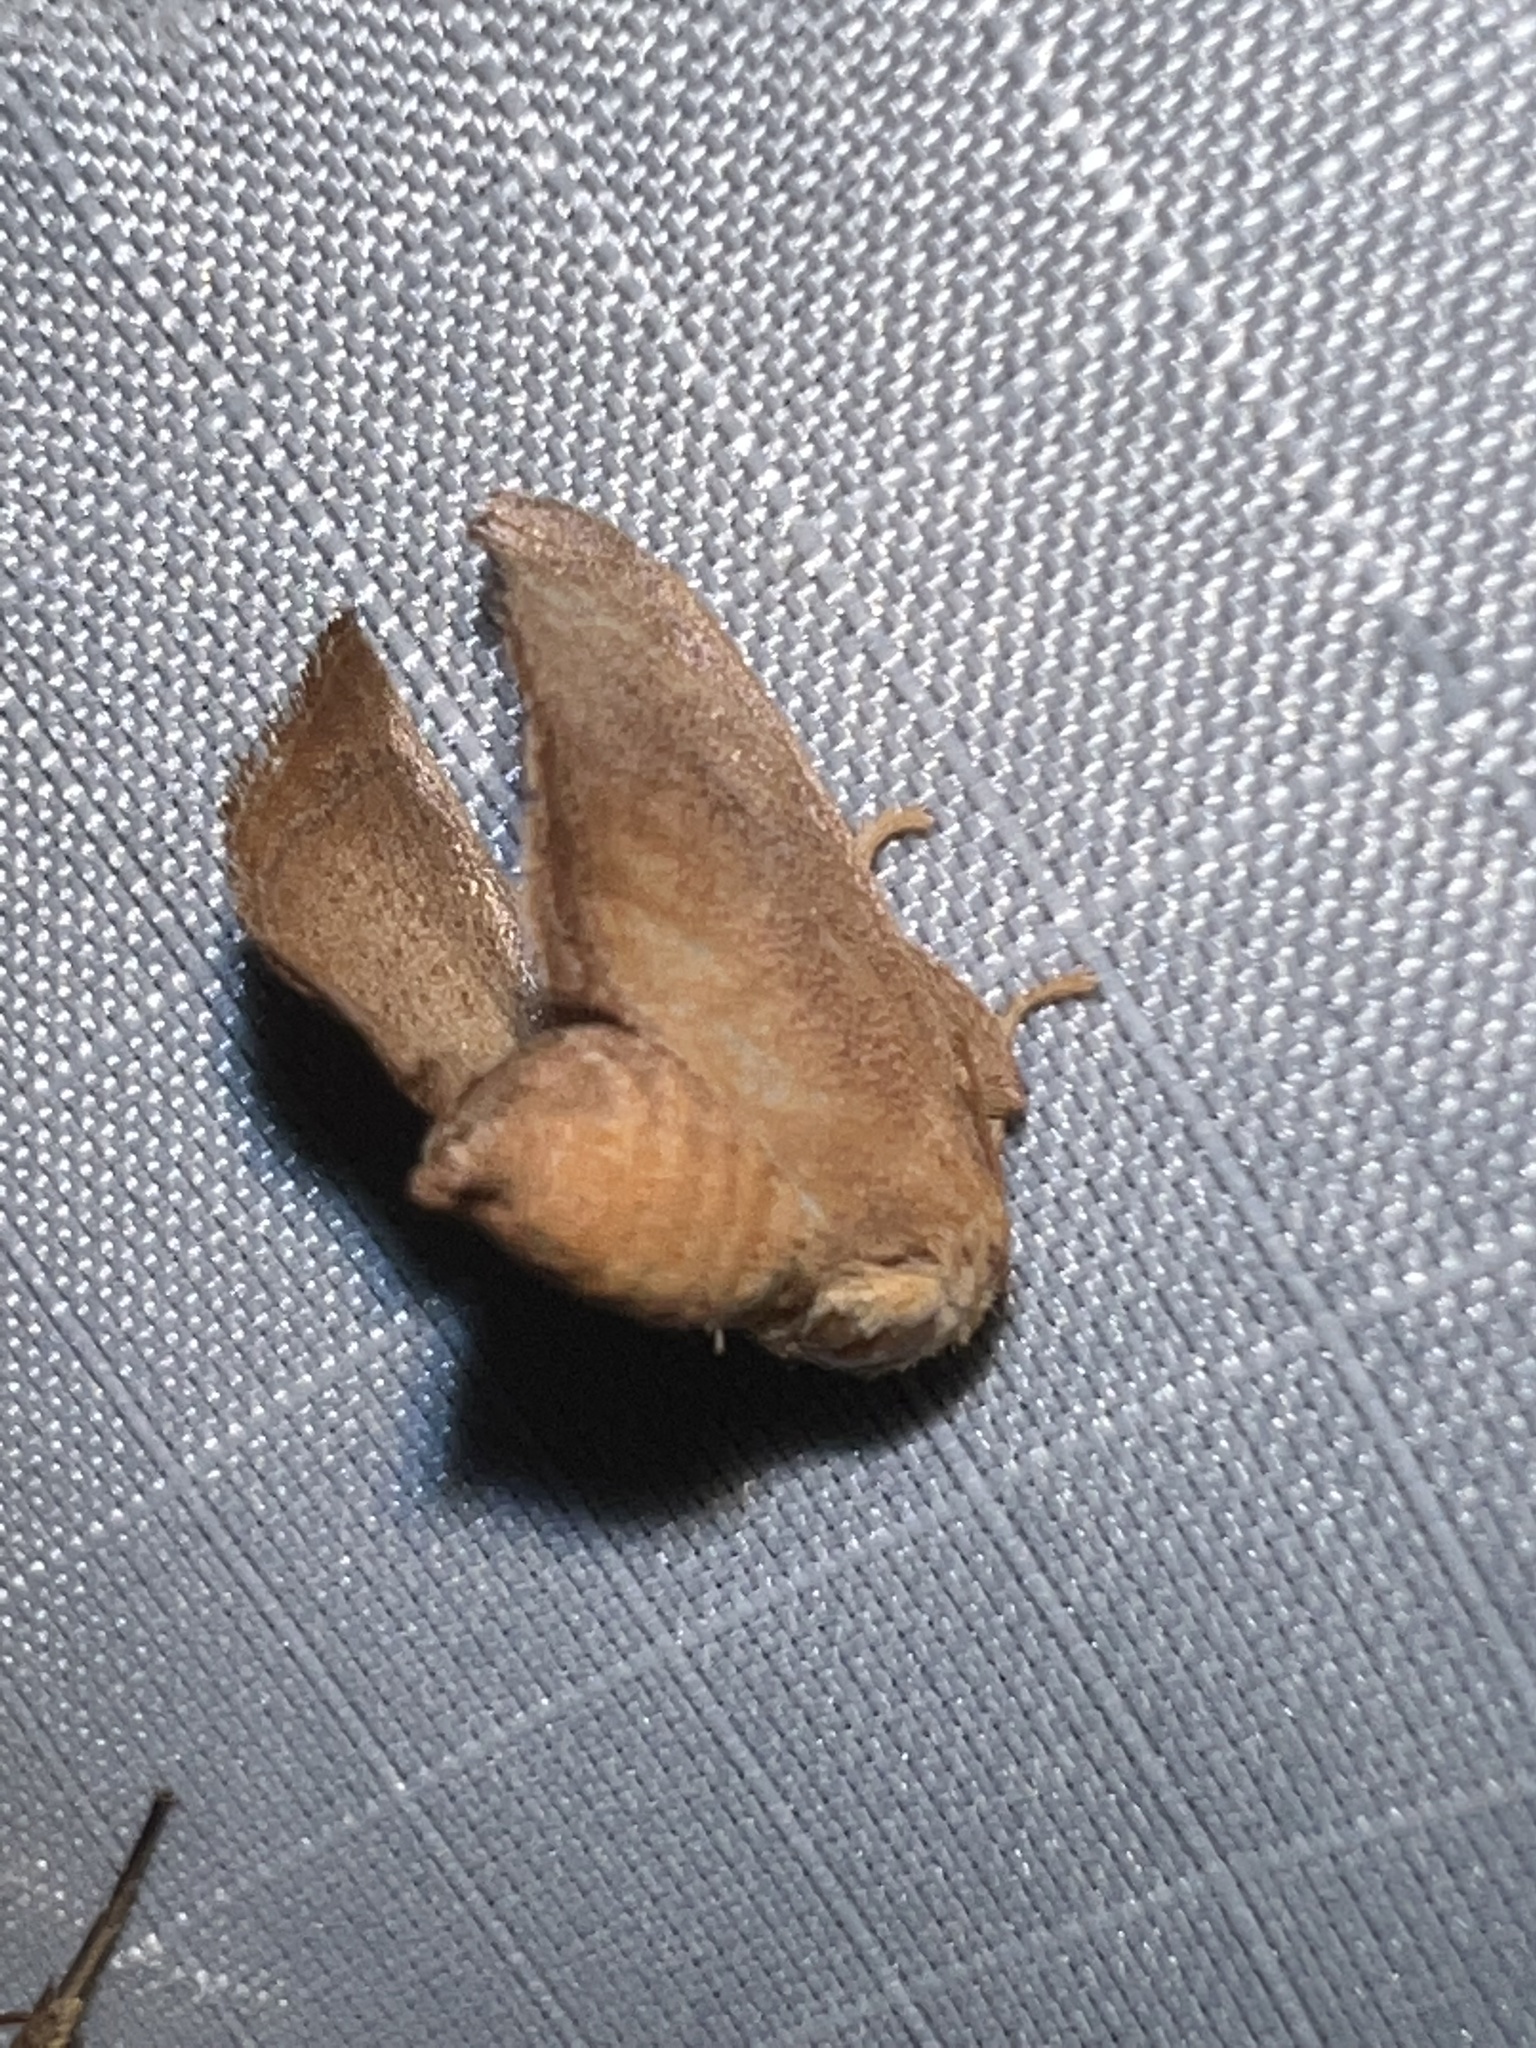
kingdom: Animalia
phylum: Arthropoda
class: Insecta
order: Lepidoptera
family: Limacodidae
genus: Isa
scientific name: Isa textula
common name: Crowned slug moth
